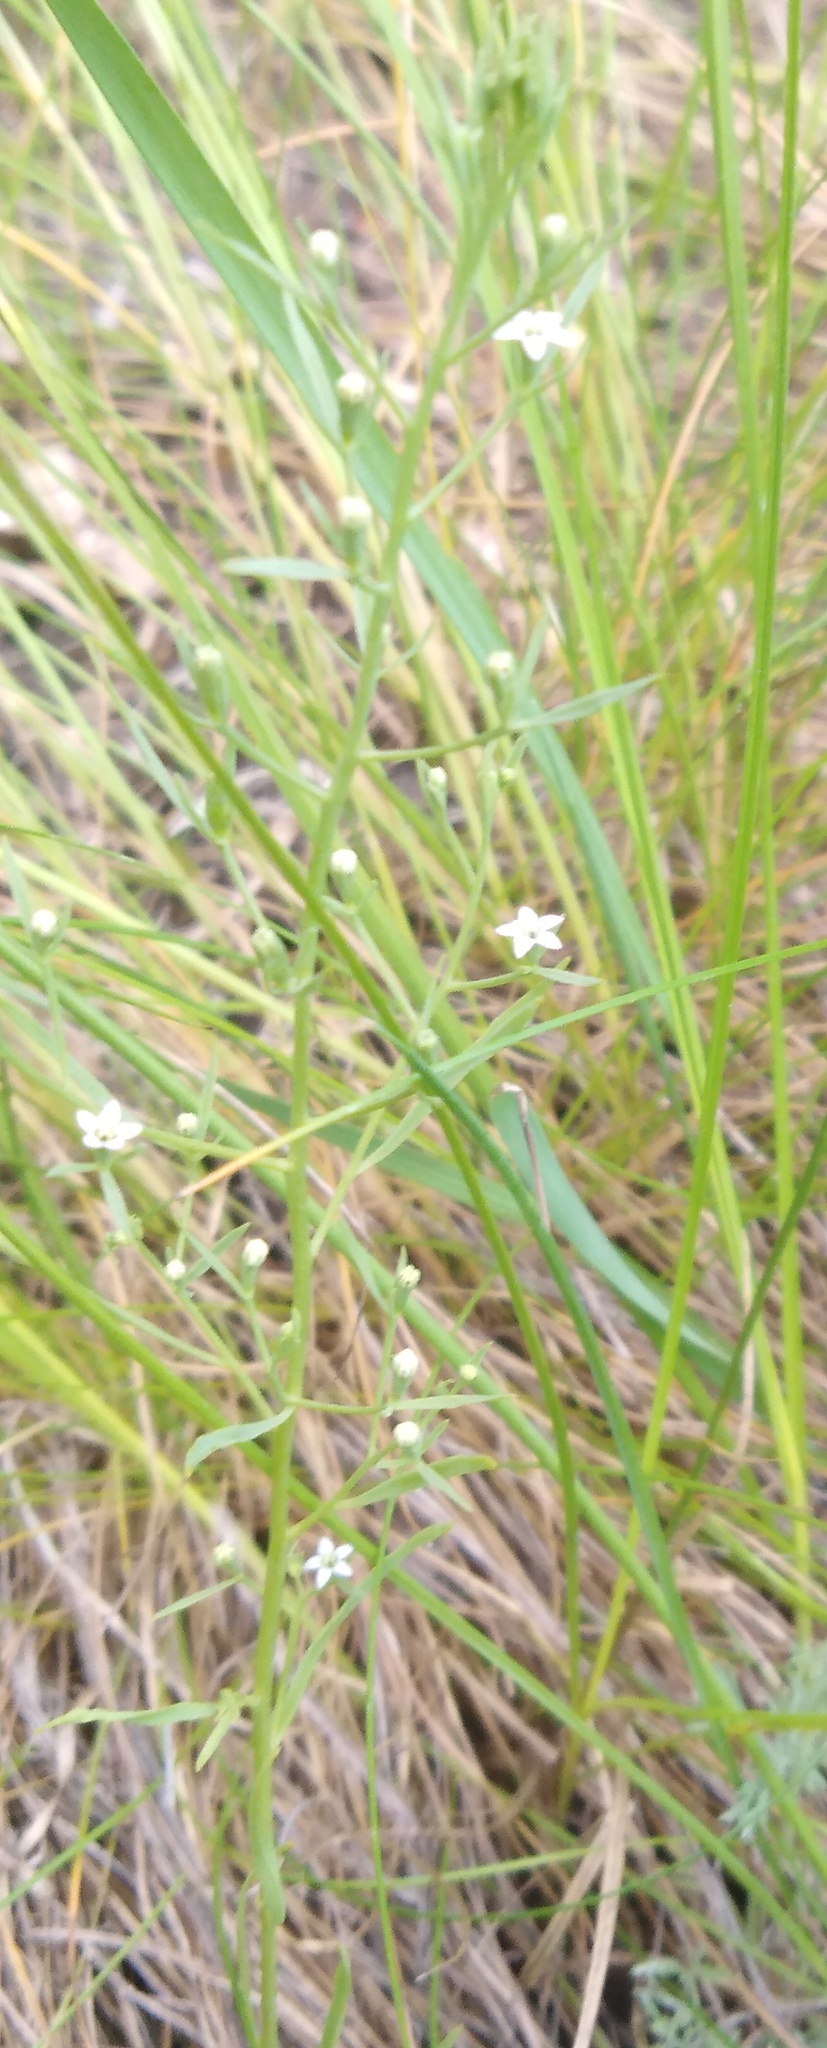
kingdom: Plantae
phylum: Tracheophyta
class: Magnoliopsida
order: Santalales
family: Thesiaceae
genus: Thesium
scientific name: Thesium ebracteatum
